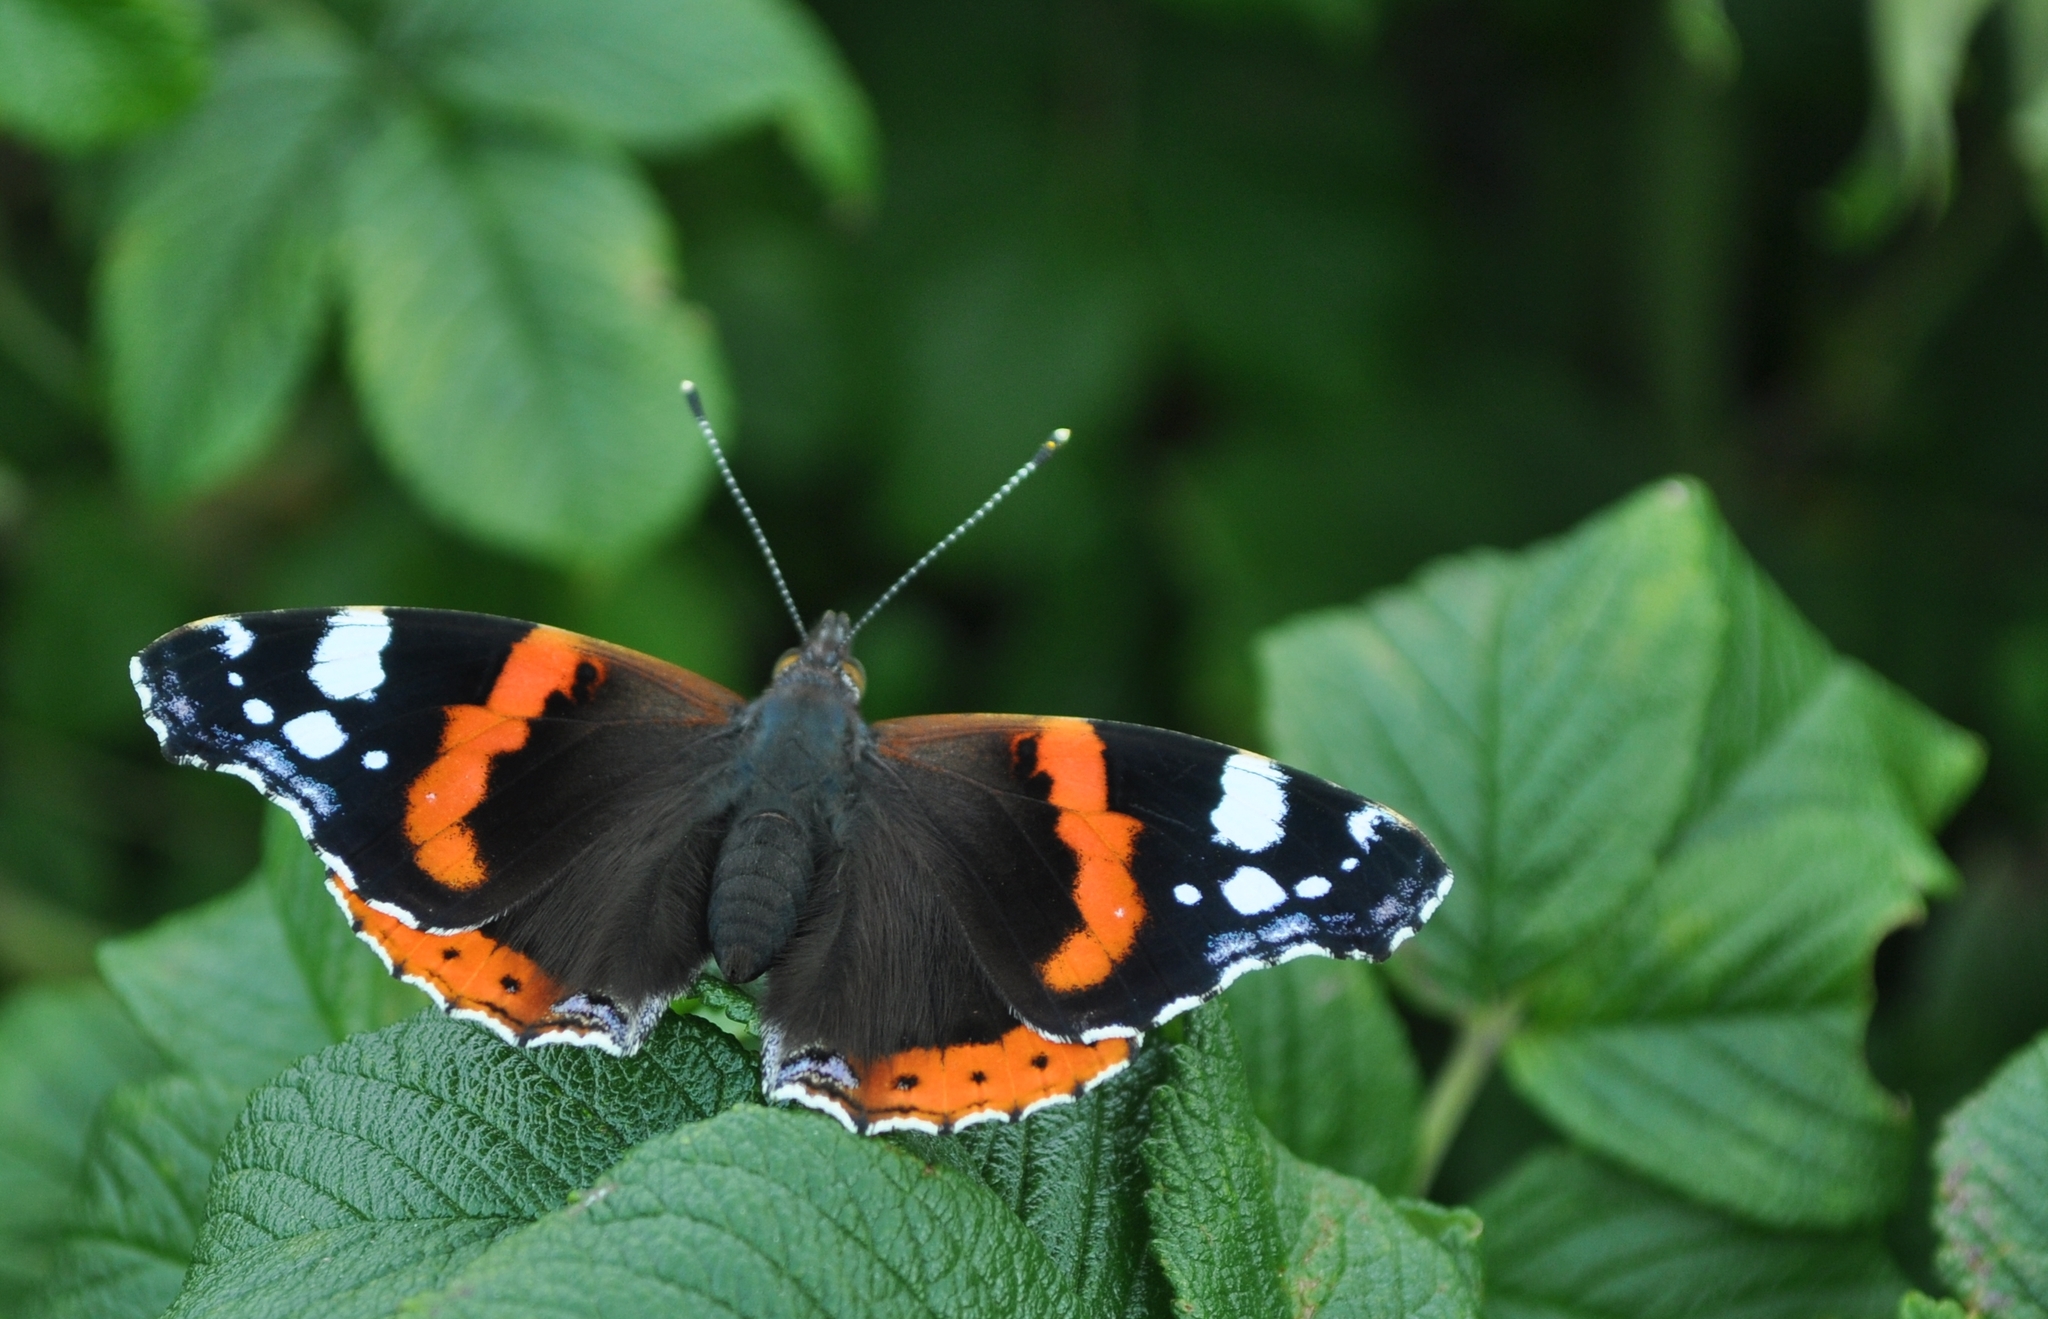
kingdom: Animalia
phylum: Arthropoda
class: Insecta
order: Lepidoptera
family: Nymphalidae
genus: Vanessa
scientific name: Vanessa atalanta
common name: Red admiral
